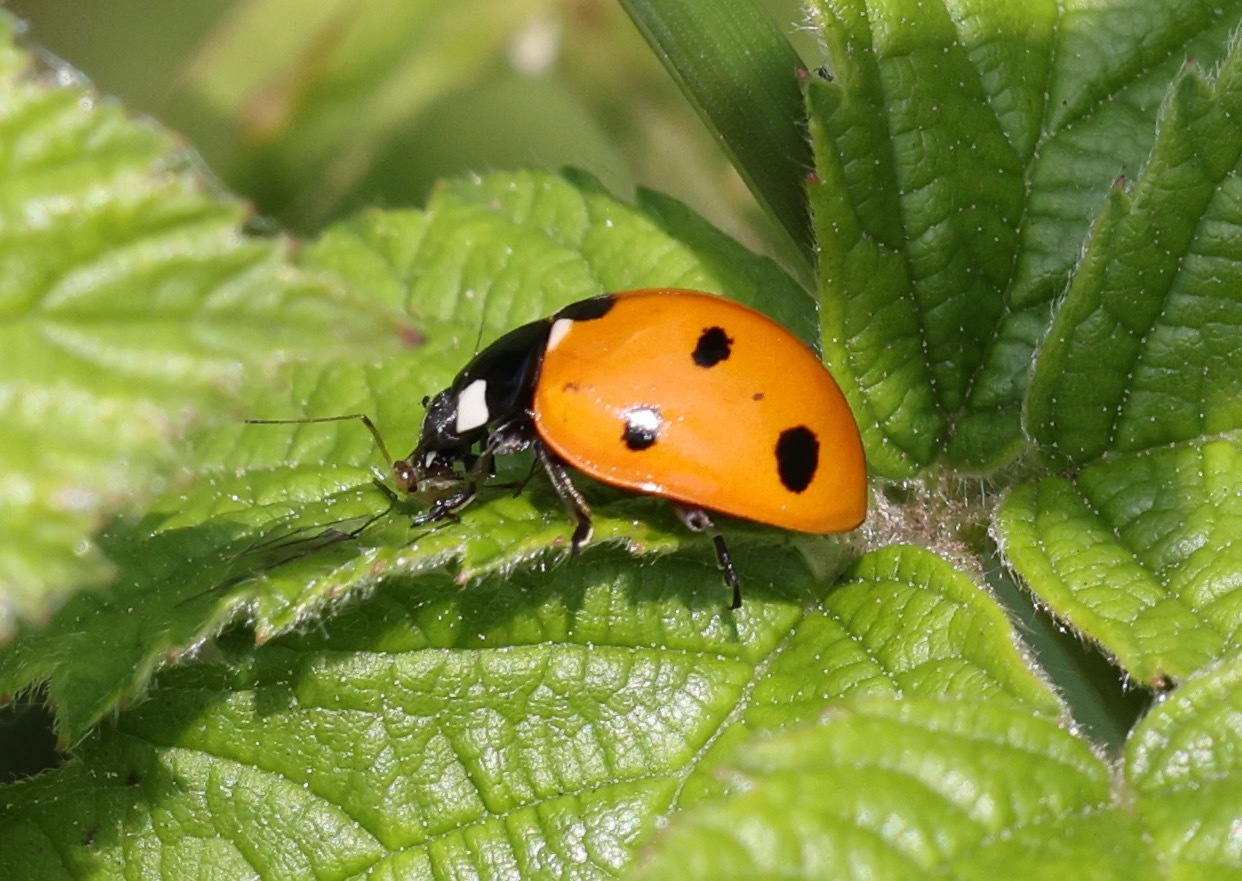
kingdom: Animalia
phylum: Arthropoda
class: Insecta
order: Coleoptera
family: Coccinellidae
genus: Coccinella
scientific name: Coccinella septempunctata
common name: Sevenspotted lady beetle
